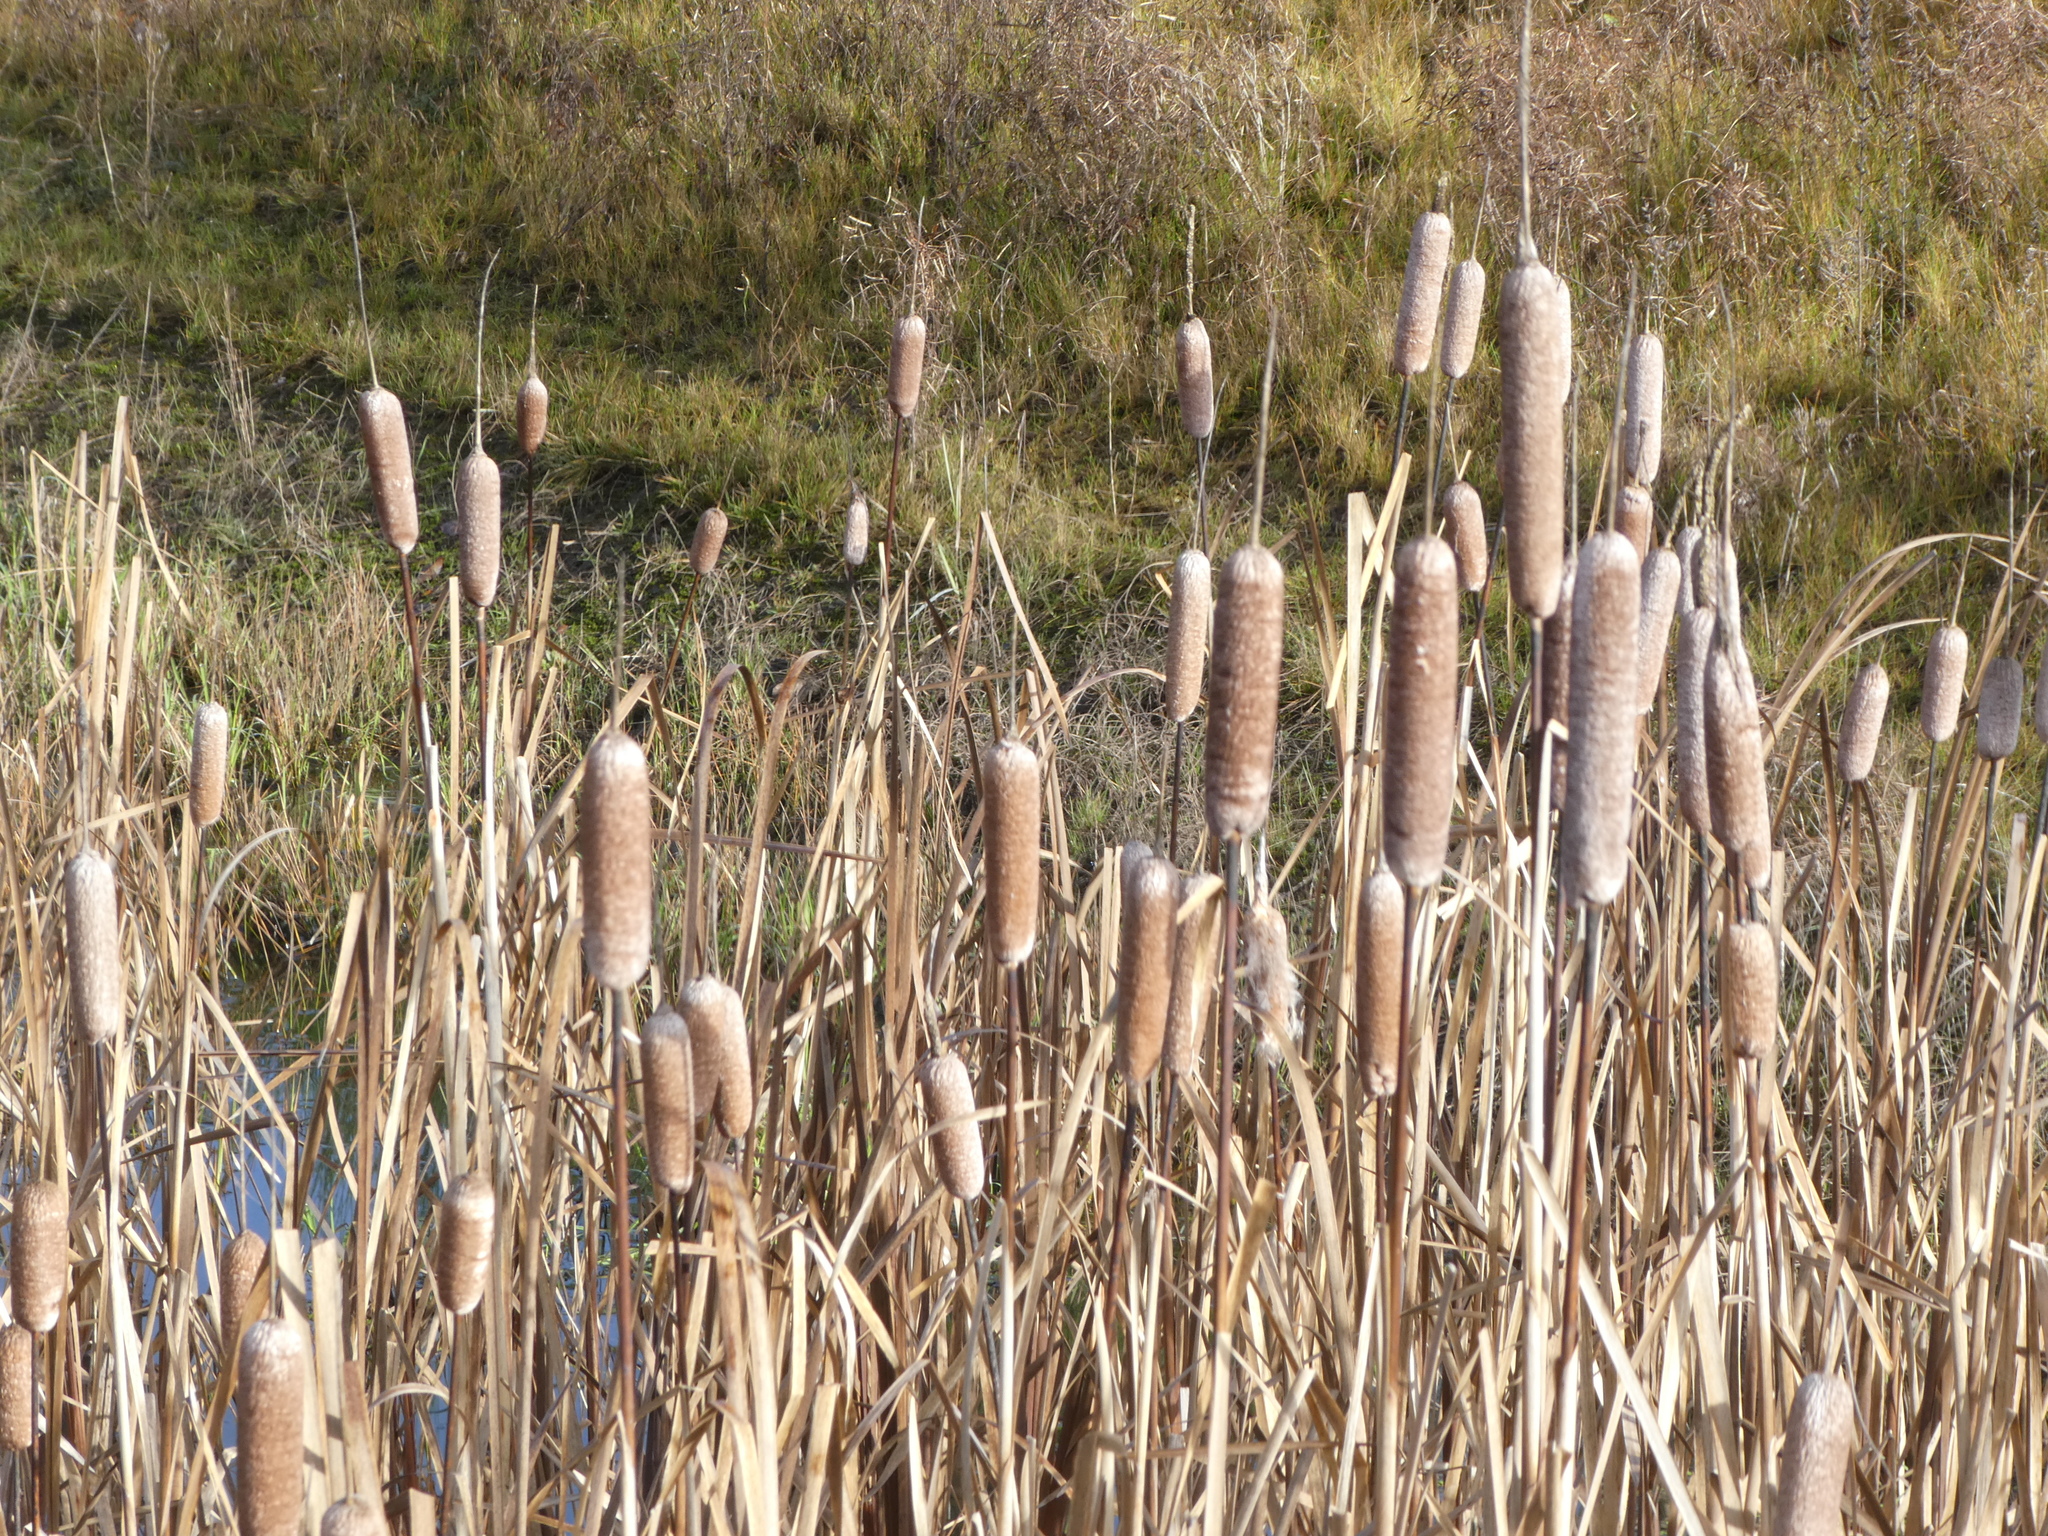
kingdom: Plantae
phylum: Tracheophyta
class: Liliopsida
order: Poales
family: Typhaceae
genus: Typha
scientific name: Typha latifolia
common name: Broadleaf cattail
